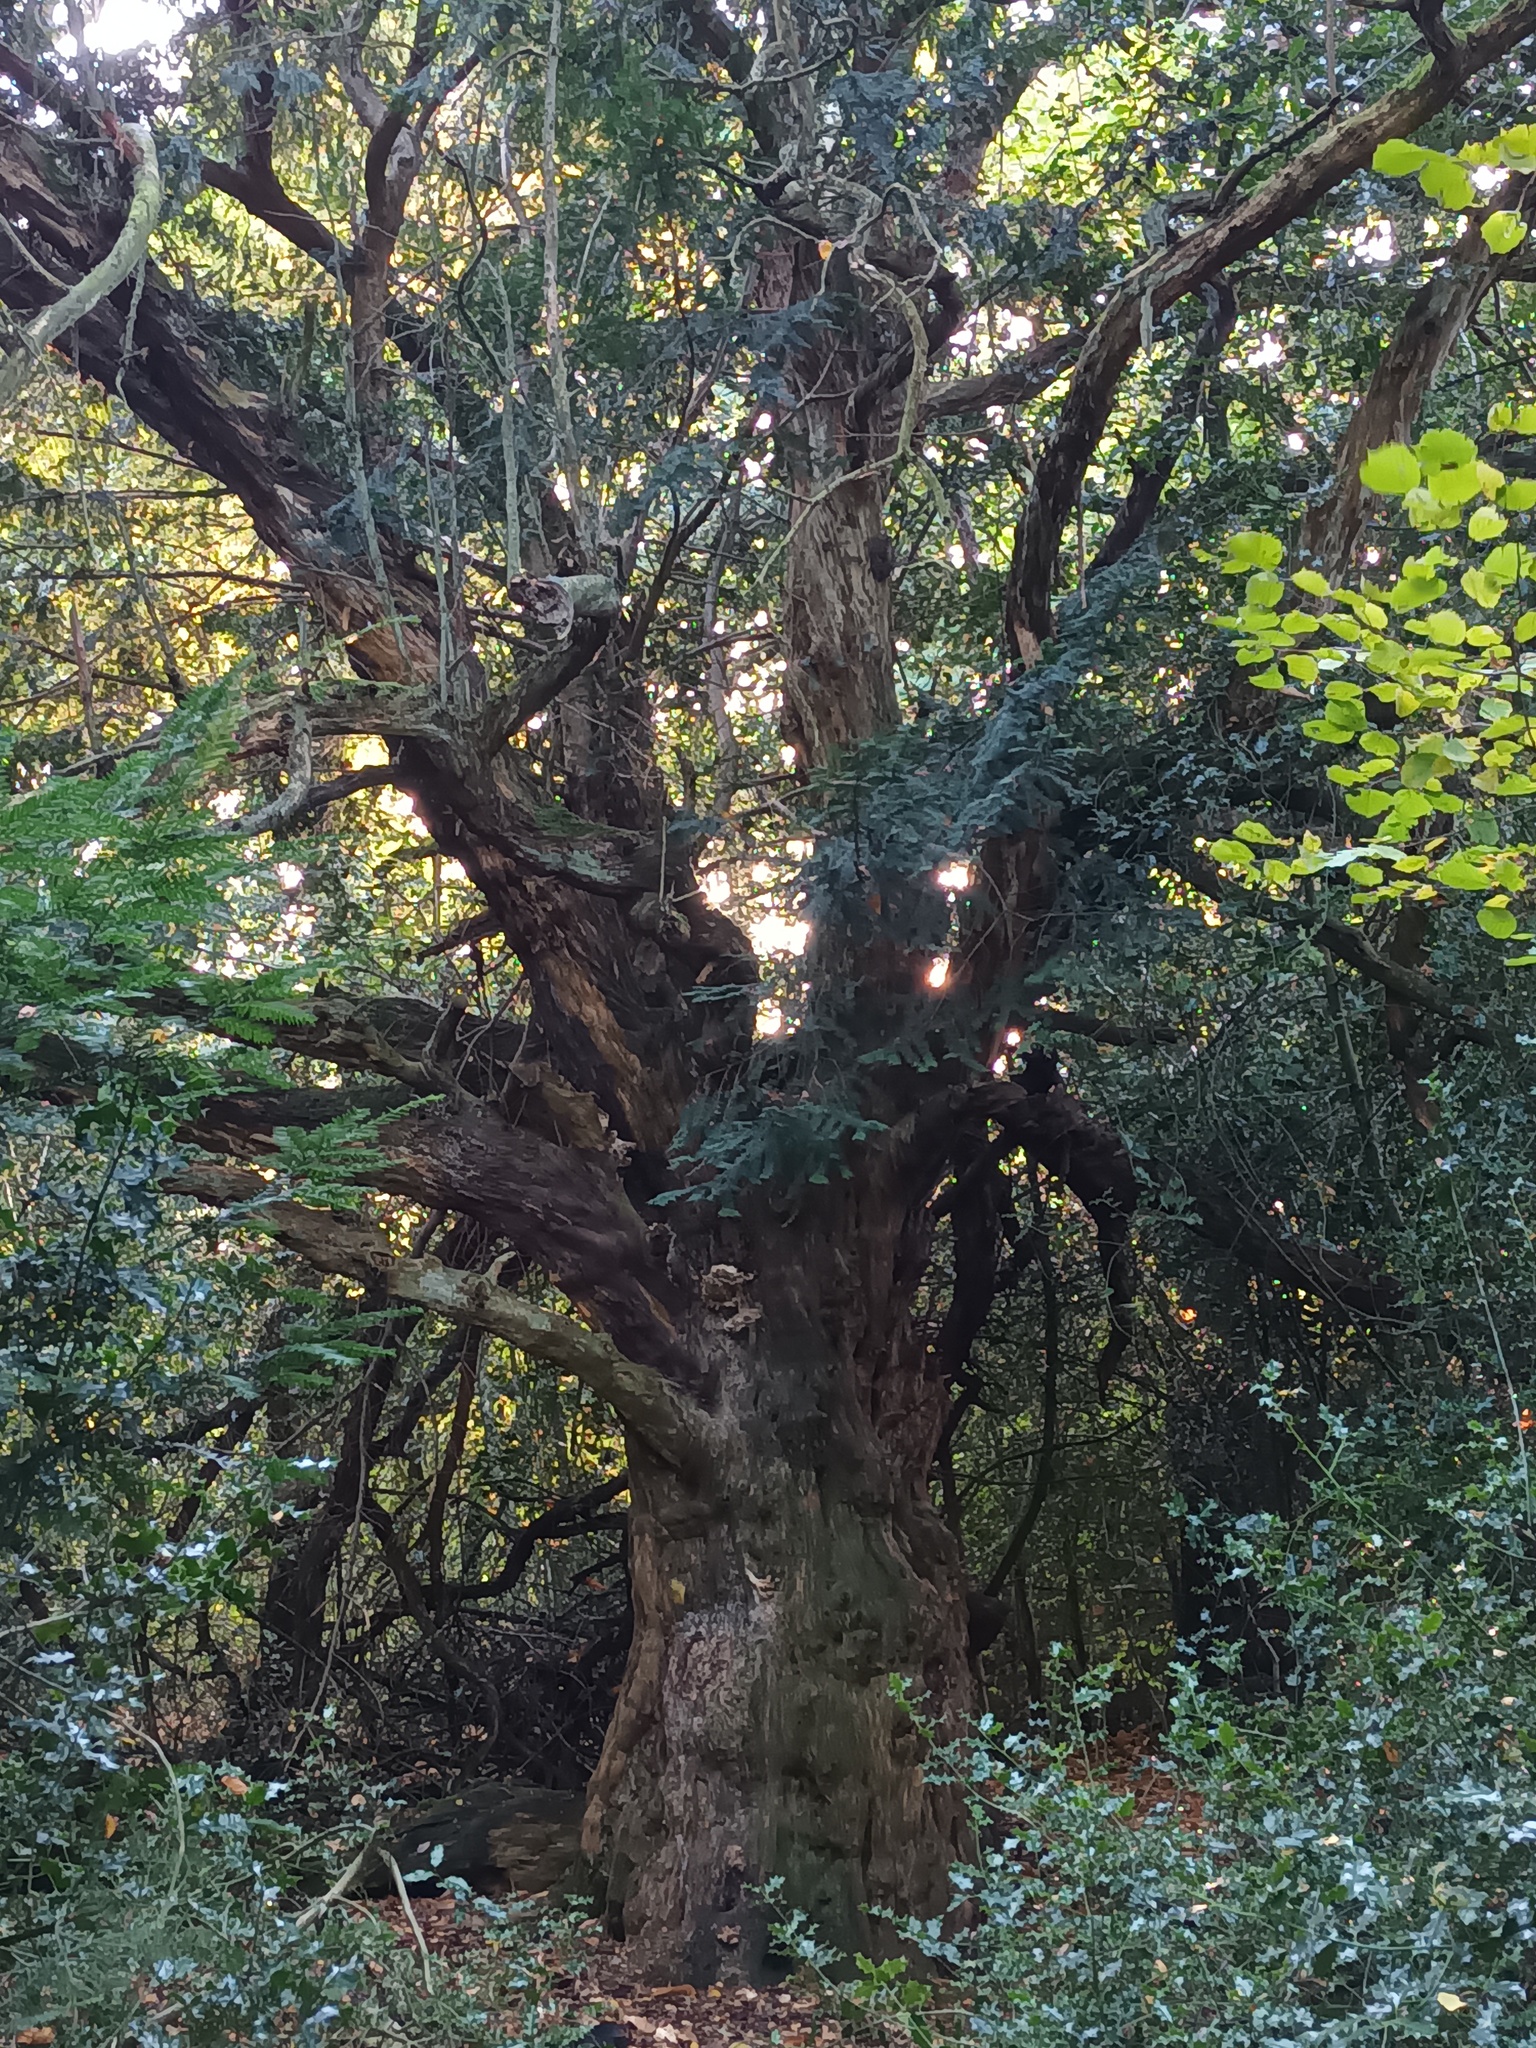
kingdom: Plantae
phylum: Tracheophyta
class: Pinopsida
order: Pinales
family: Taxaceae
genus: Taxus
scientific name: Taxus baccata
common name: Yew
